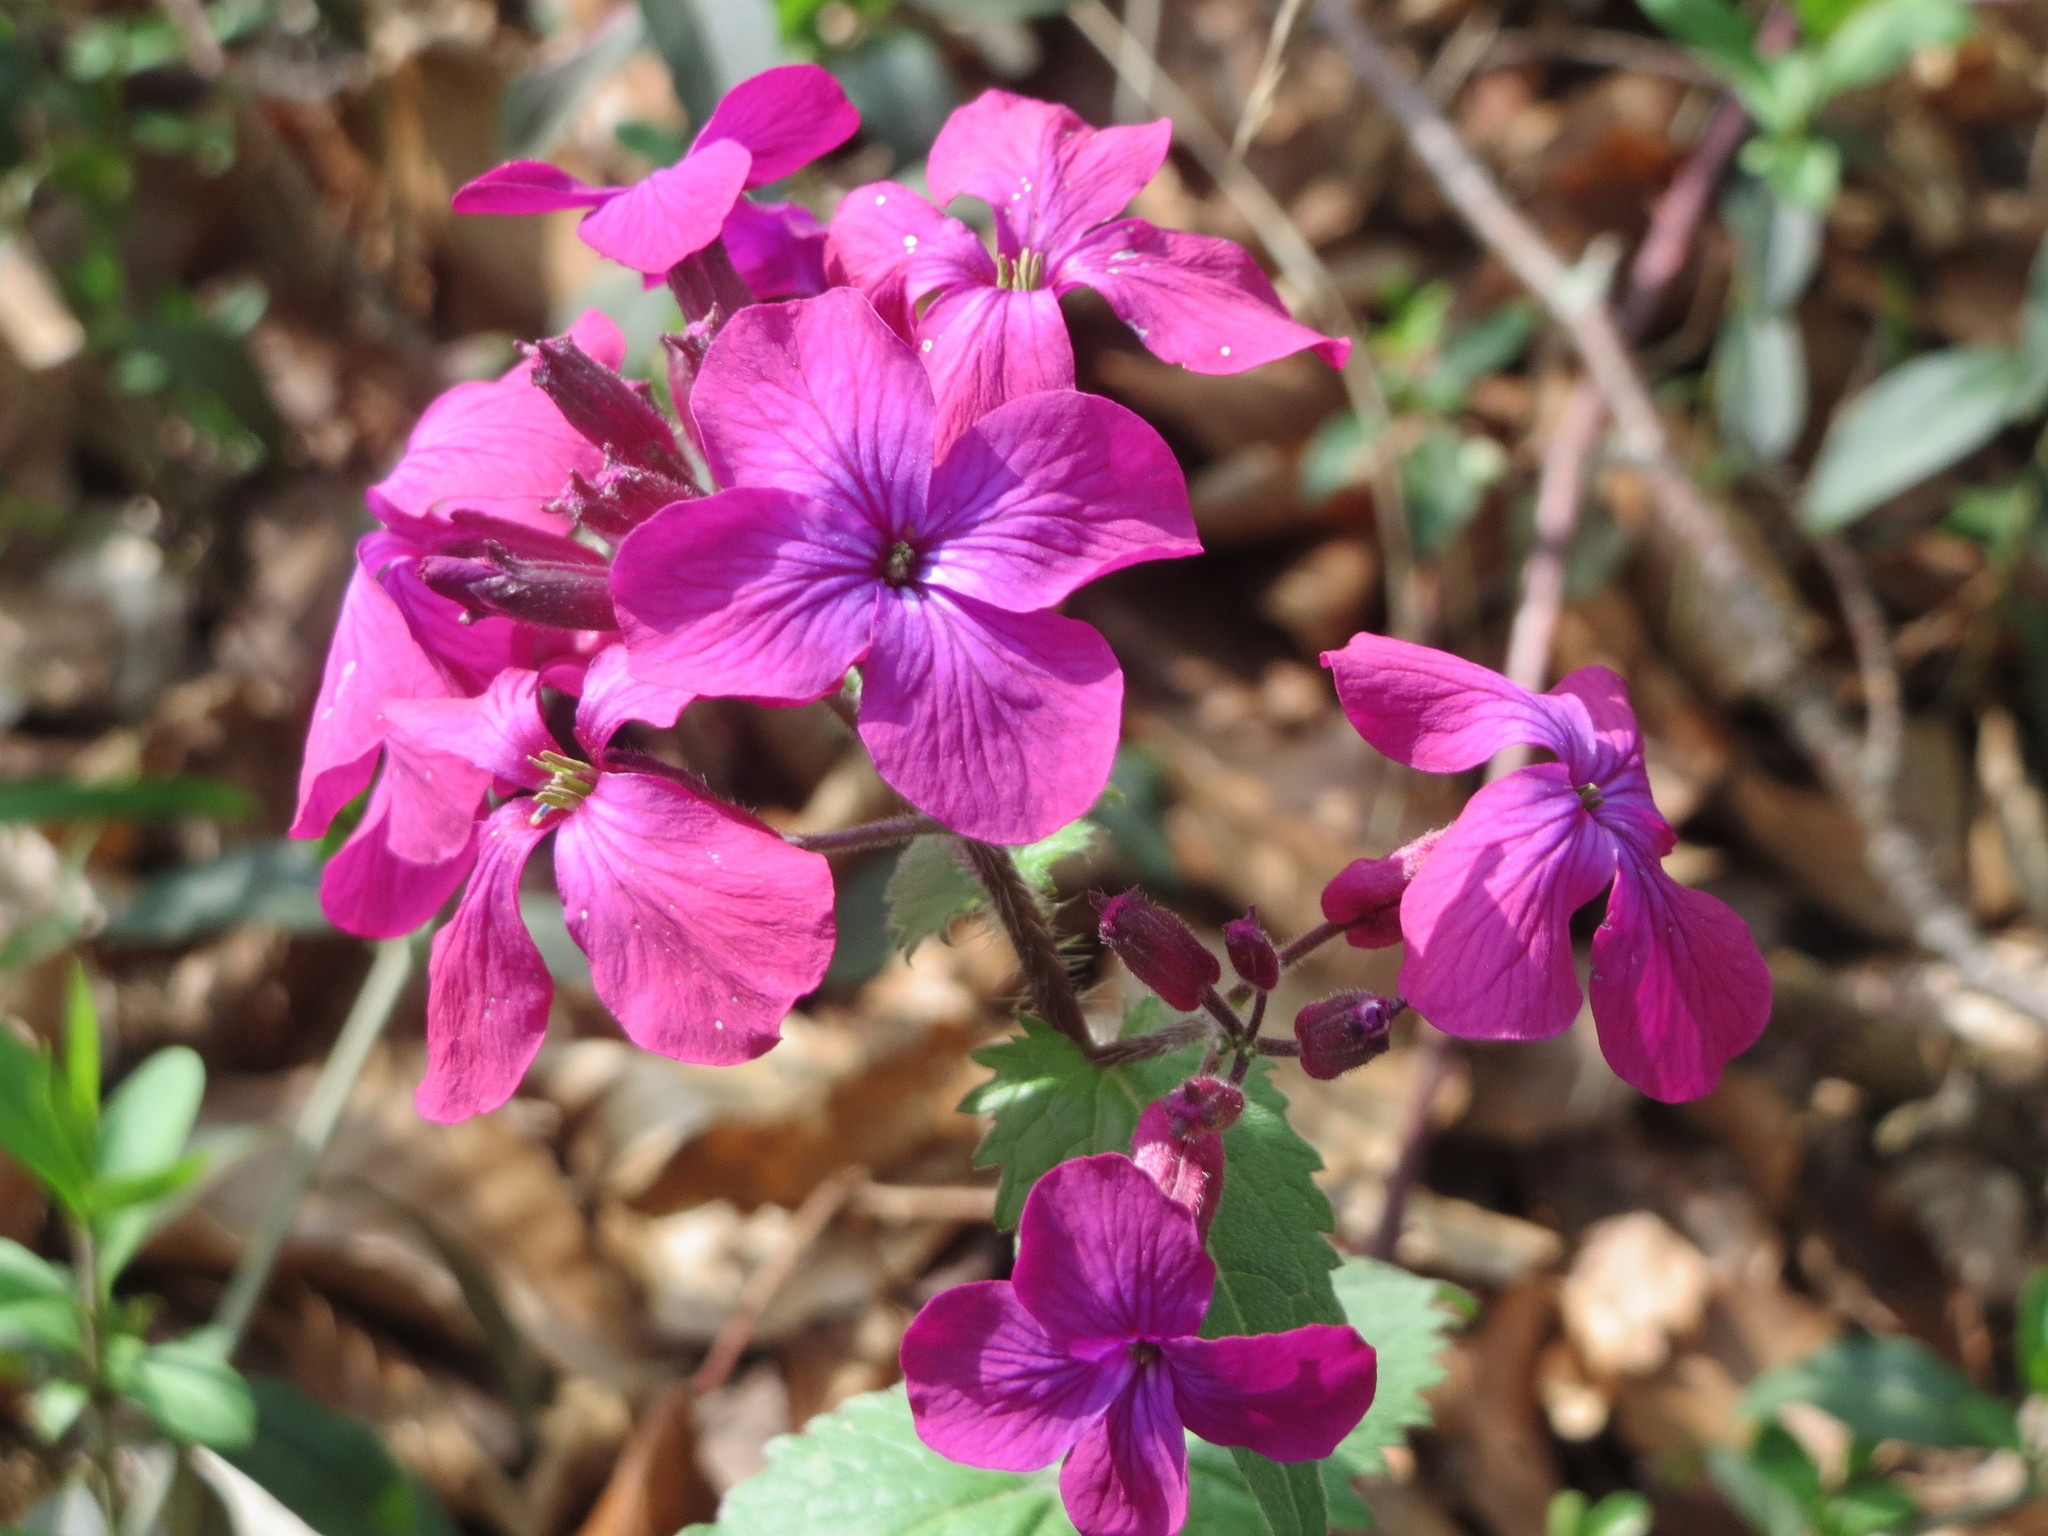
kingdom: Plantae
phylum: Tracheophyta
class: Magnoliopsida
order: Brassicales
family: Brassicaceae
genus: Lunaria
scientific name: Lunaria annua
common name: Honesty
